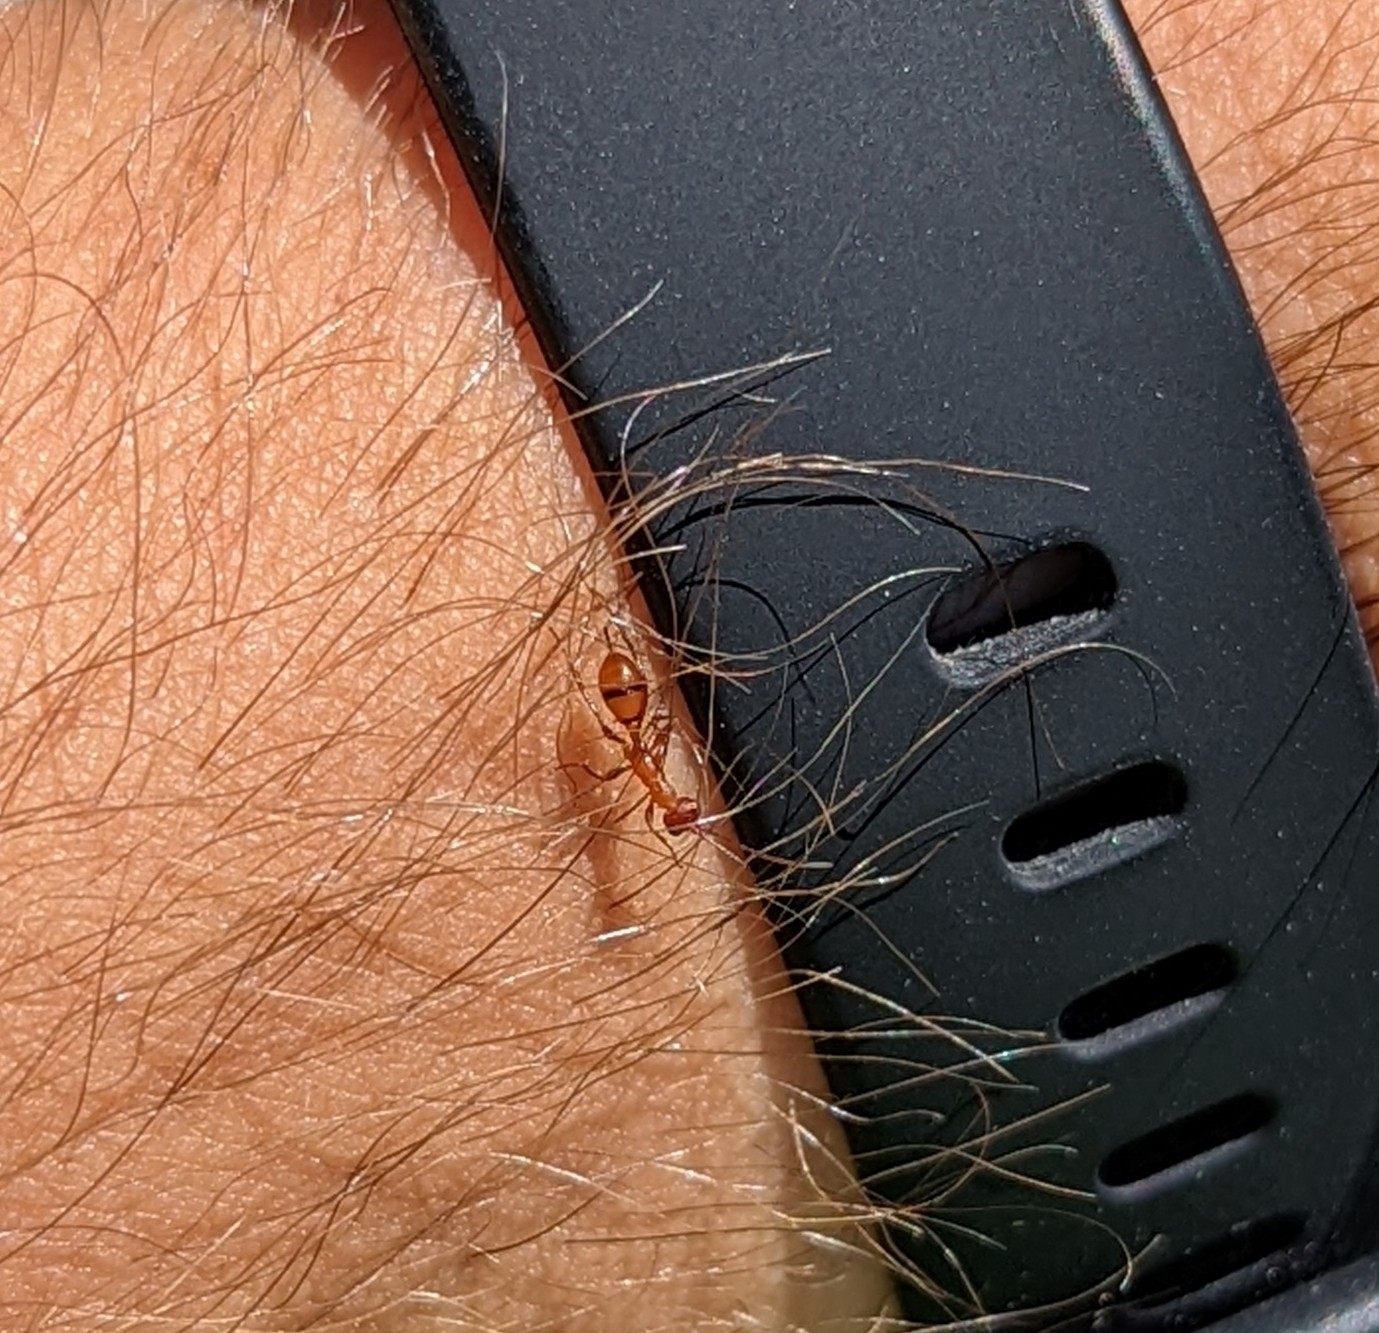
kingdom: Animalia
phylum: Arthropoda
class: Insecta
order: Hymenoptera
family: Ichneumonidae
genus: Gelis
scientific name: Gelis
